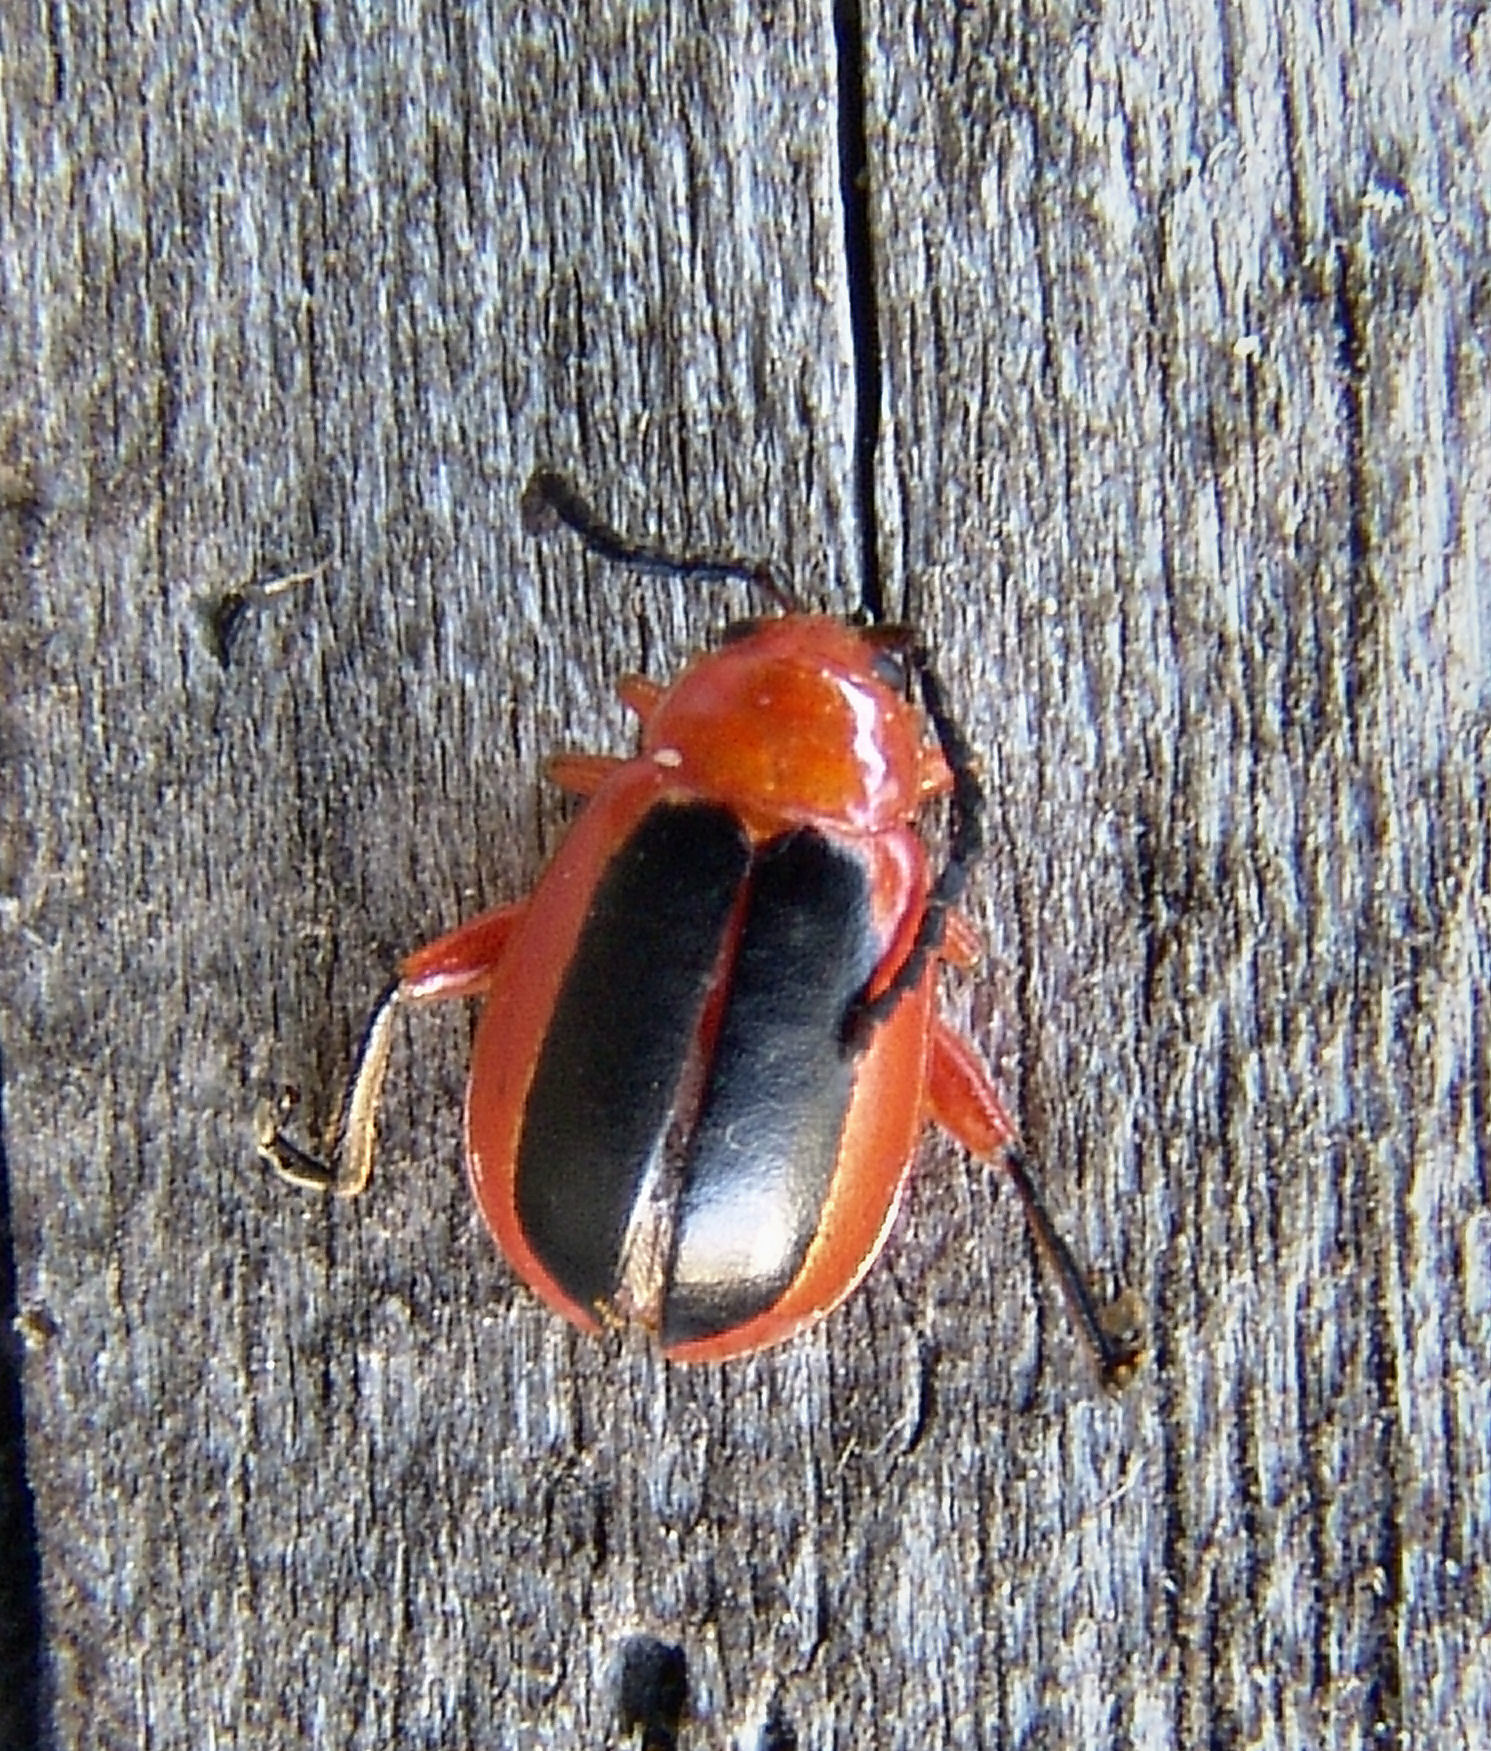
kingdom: Animalia
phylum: Arthropoda
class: Insecta
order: Coleoptera
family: Chrysomelidae
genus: Disonycha
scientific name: Disonycha discoidea
